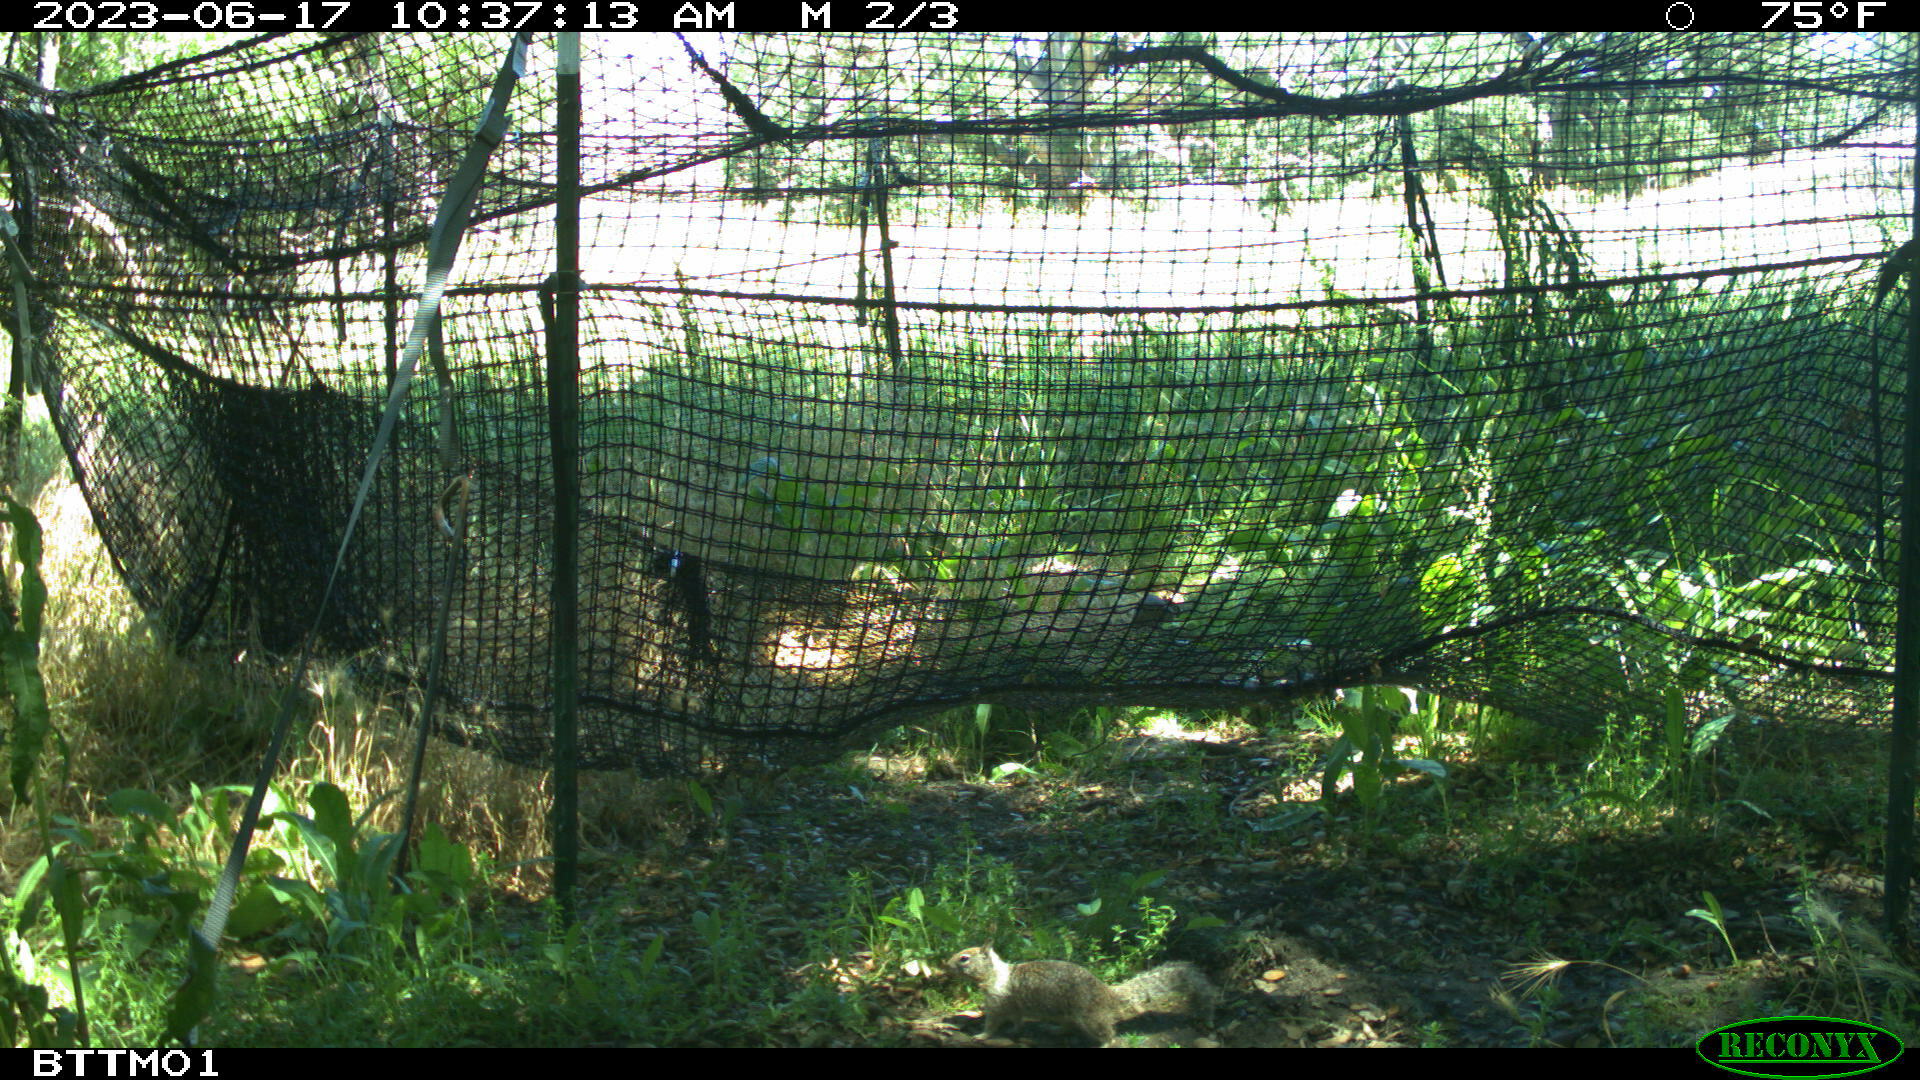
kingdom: Animalia
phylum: Chordata
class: Mammalia
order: Rodentia
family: Sciuridae
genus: Otospermophilus
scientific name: Otospermophilus beecheyi
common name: California ground squirrel
